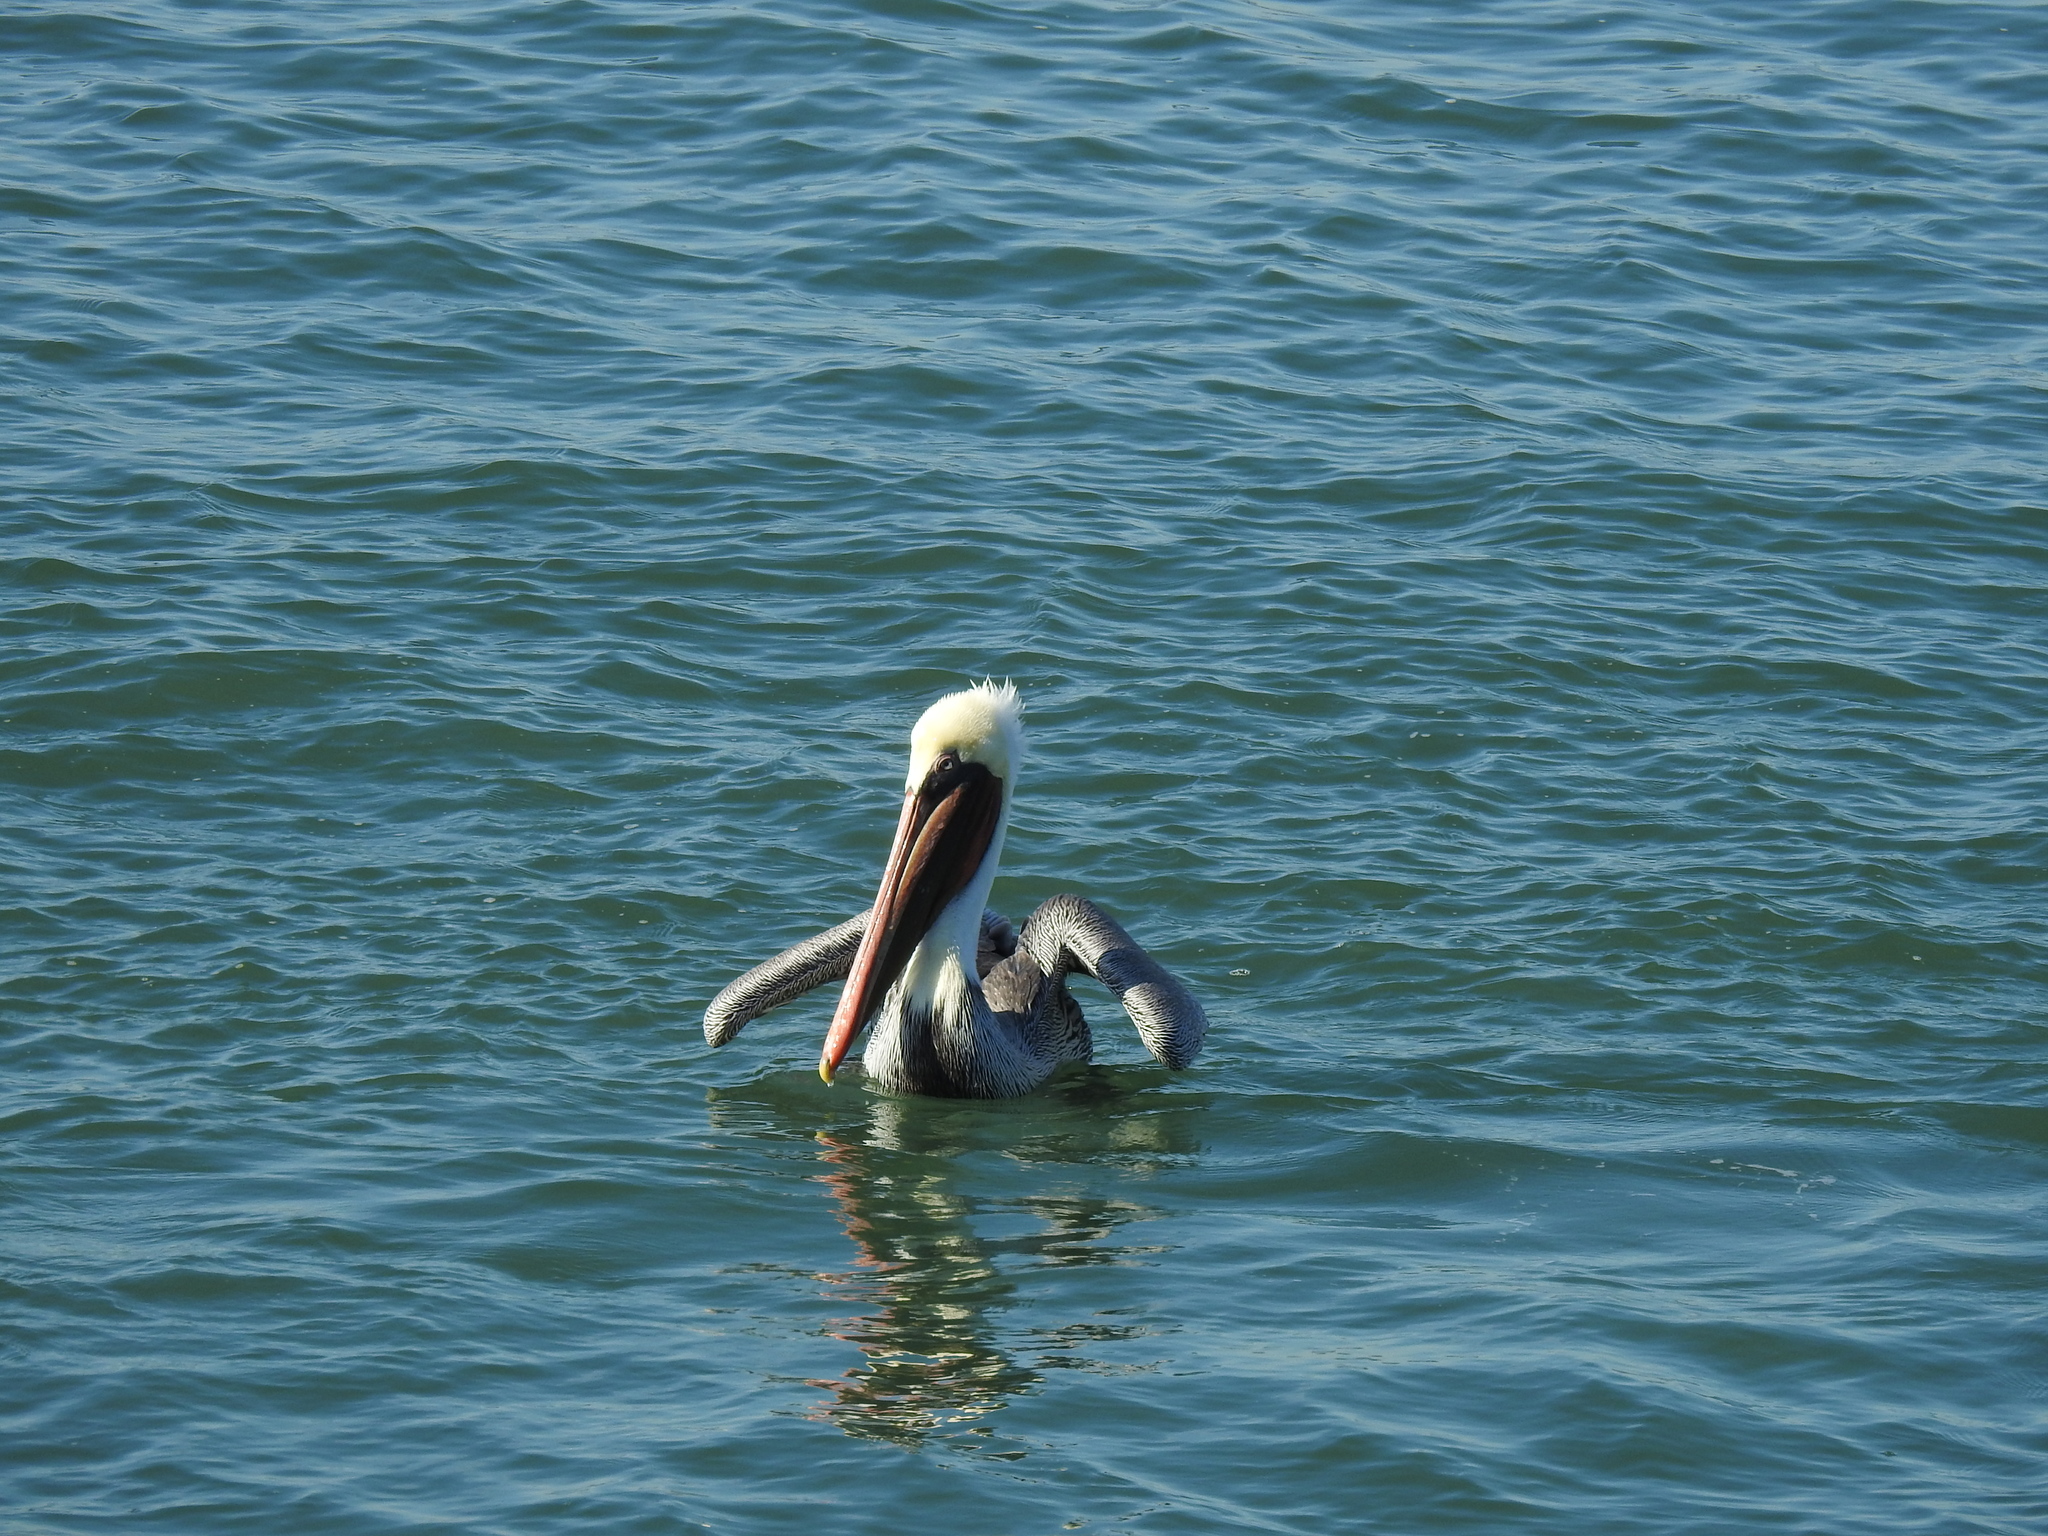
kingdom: Animalia
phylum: Chordata
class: Aves
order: Pelecaniformes
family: Pelecanidae
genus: Pelecanus
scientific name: Pelecanus occidentalis
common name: Brown pelican
